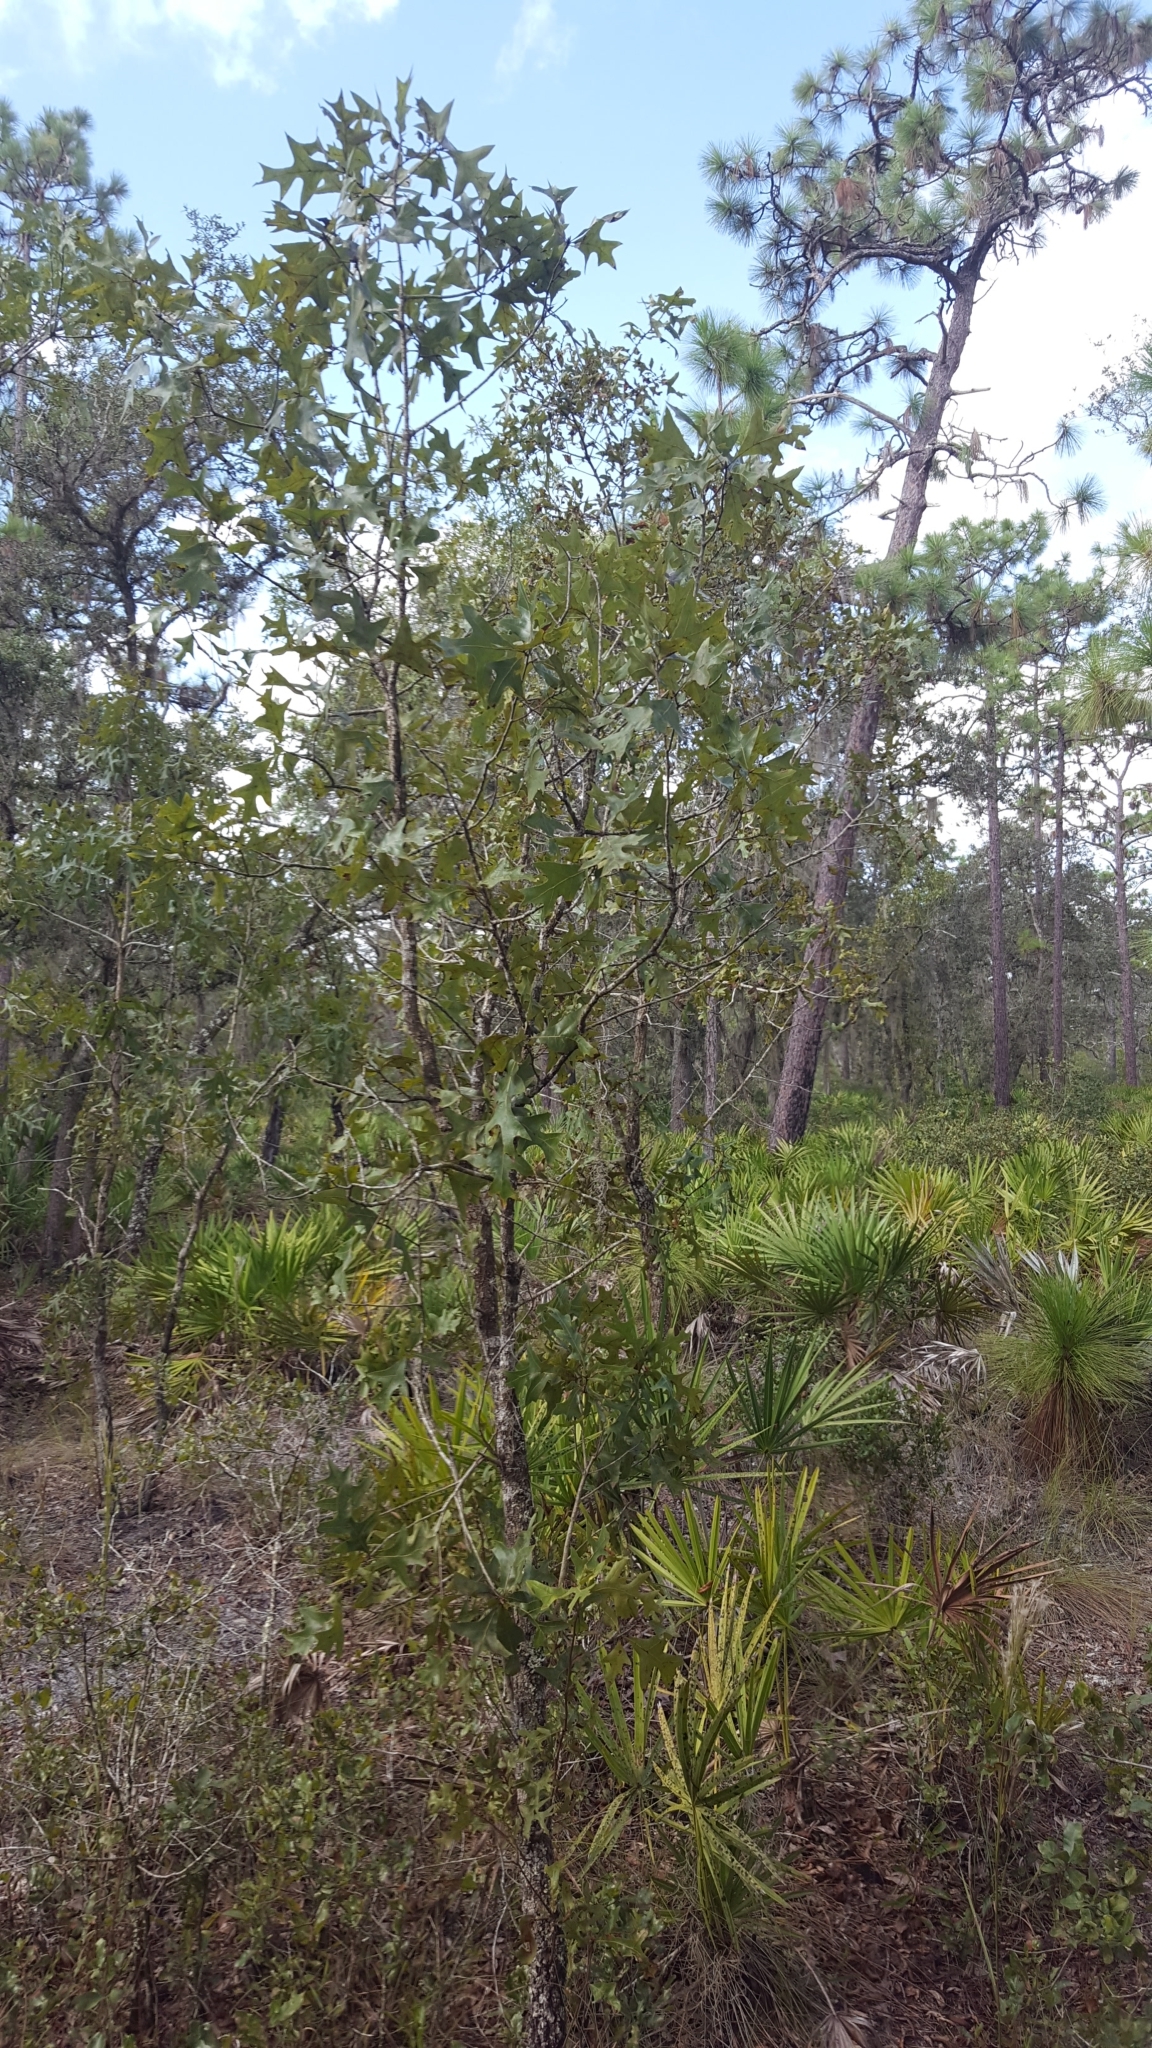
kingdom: Plantae
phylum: Tracheophyta
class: Magnoliopsida
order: Fagales
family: Fagaceae
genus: Quercus
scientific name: Quercus laevis
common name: Turkey oak
